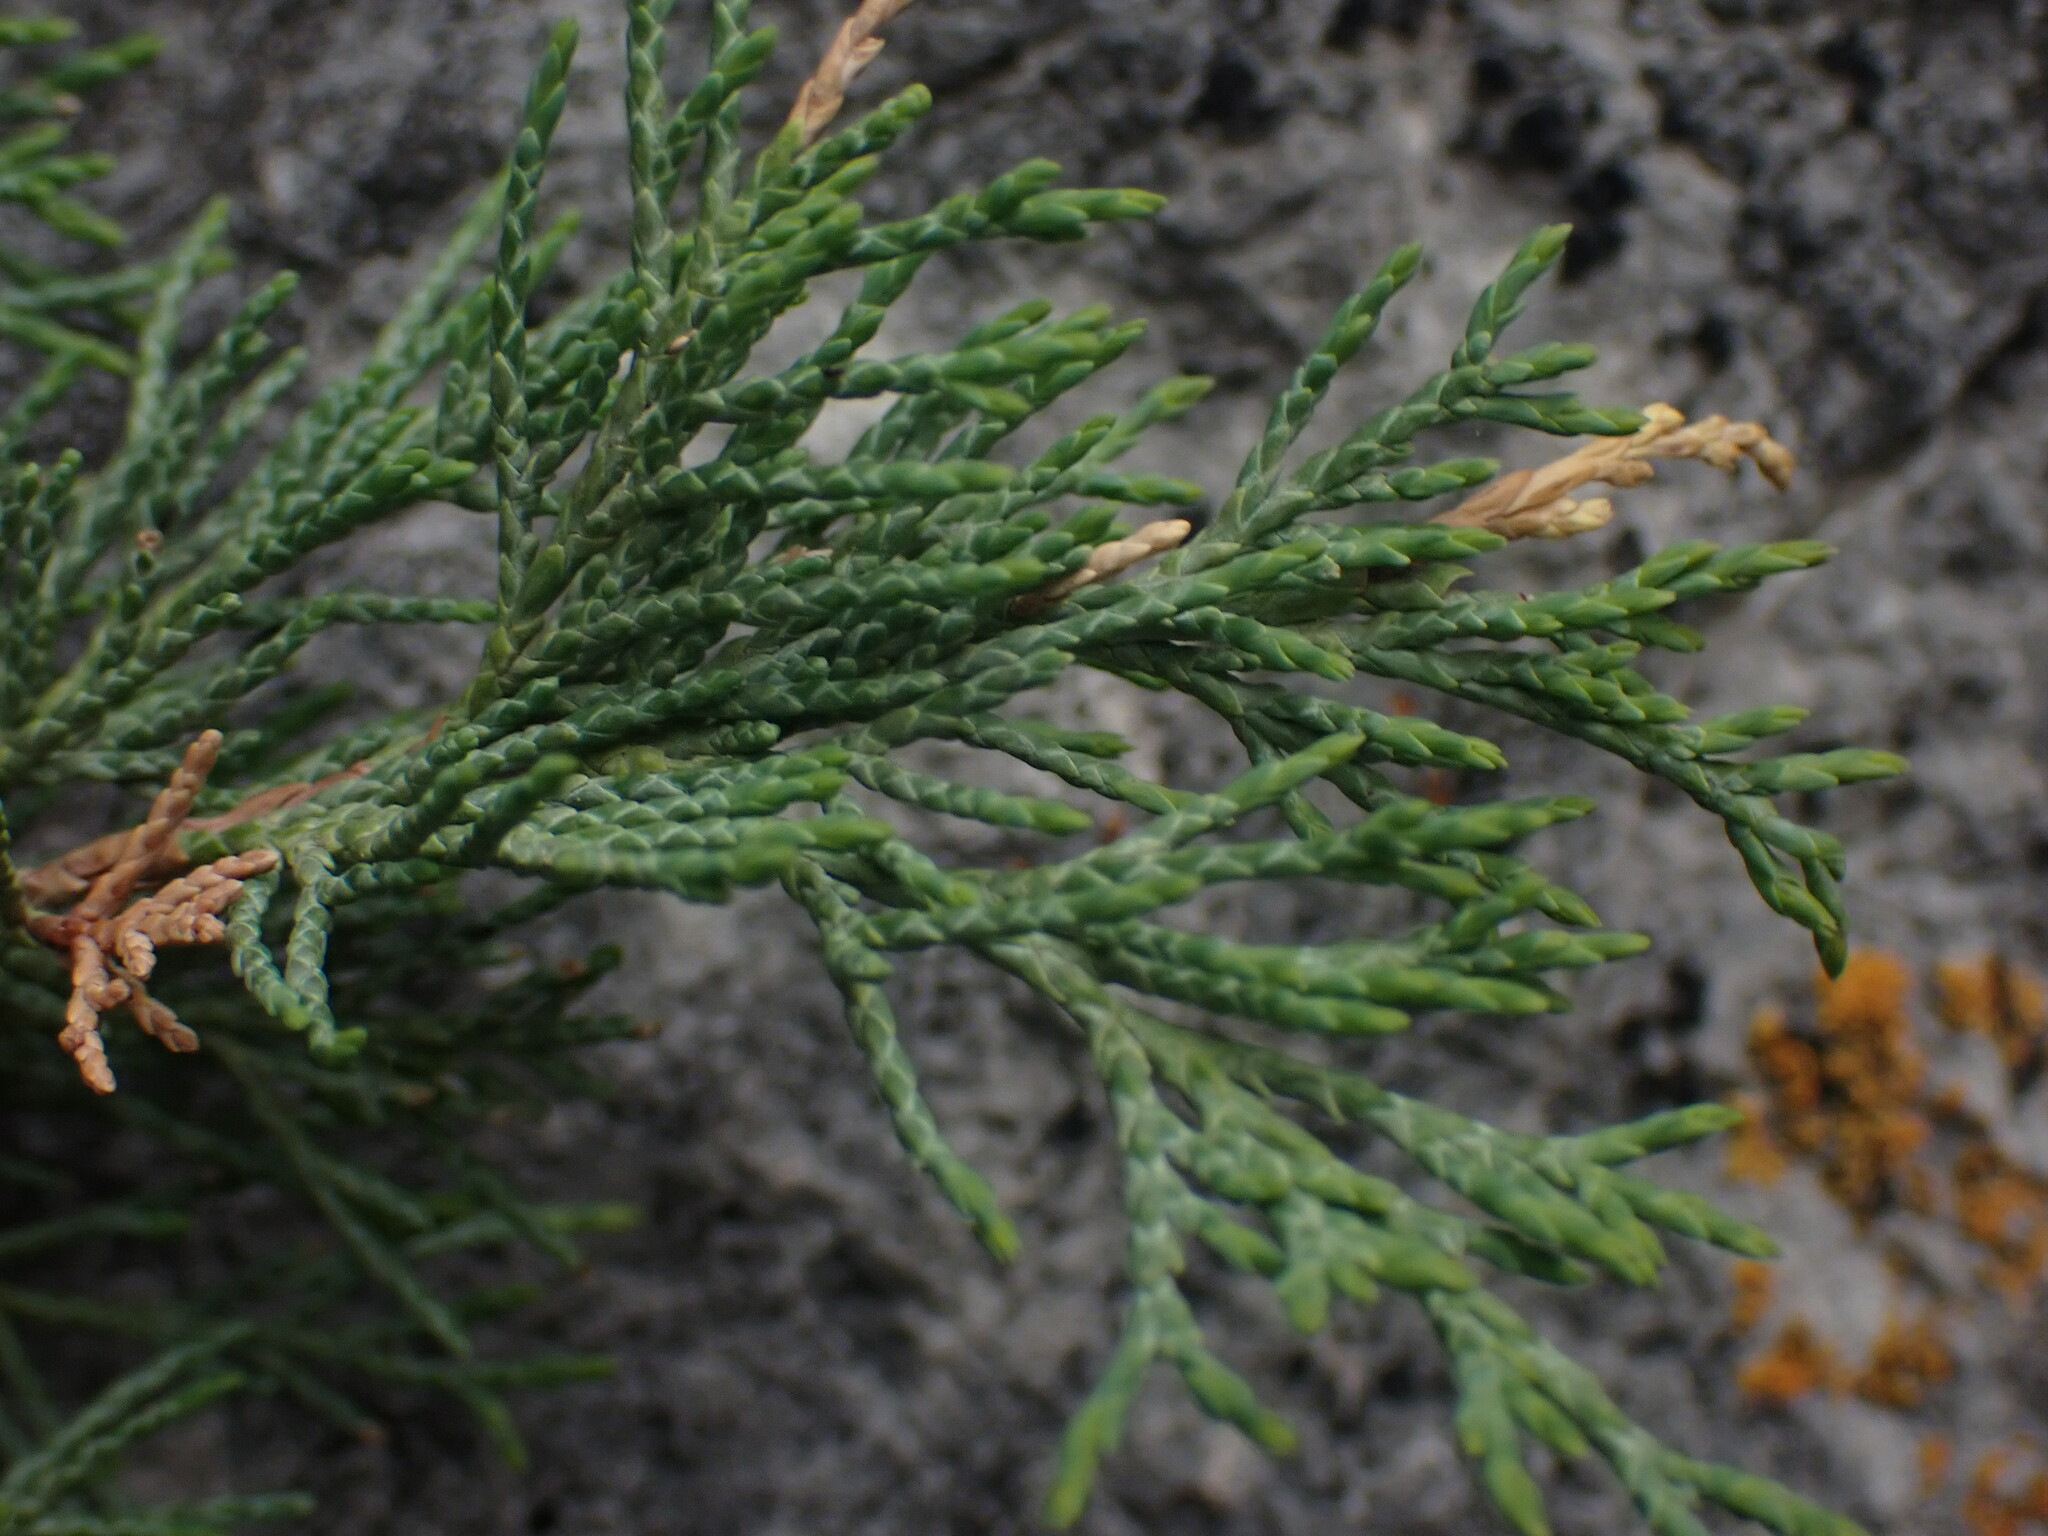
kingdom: Plantae
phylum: Tracheophyta
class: Pinopsida
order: Pinales
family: Cupressaceae
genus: Juniperus
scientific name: Juniperus scopulorum
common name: Rocky mountain juniper
